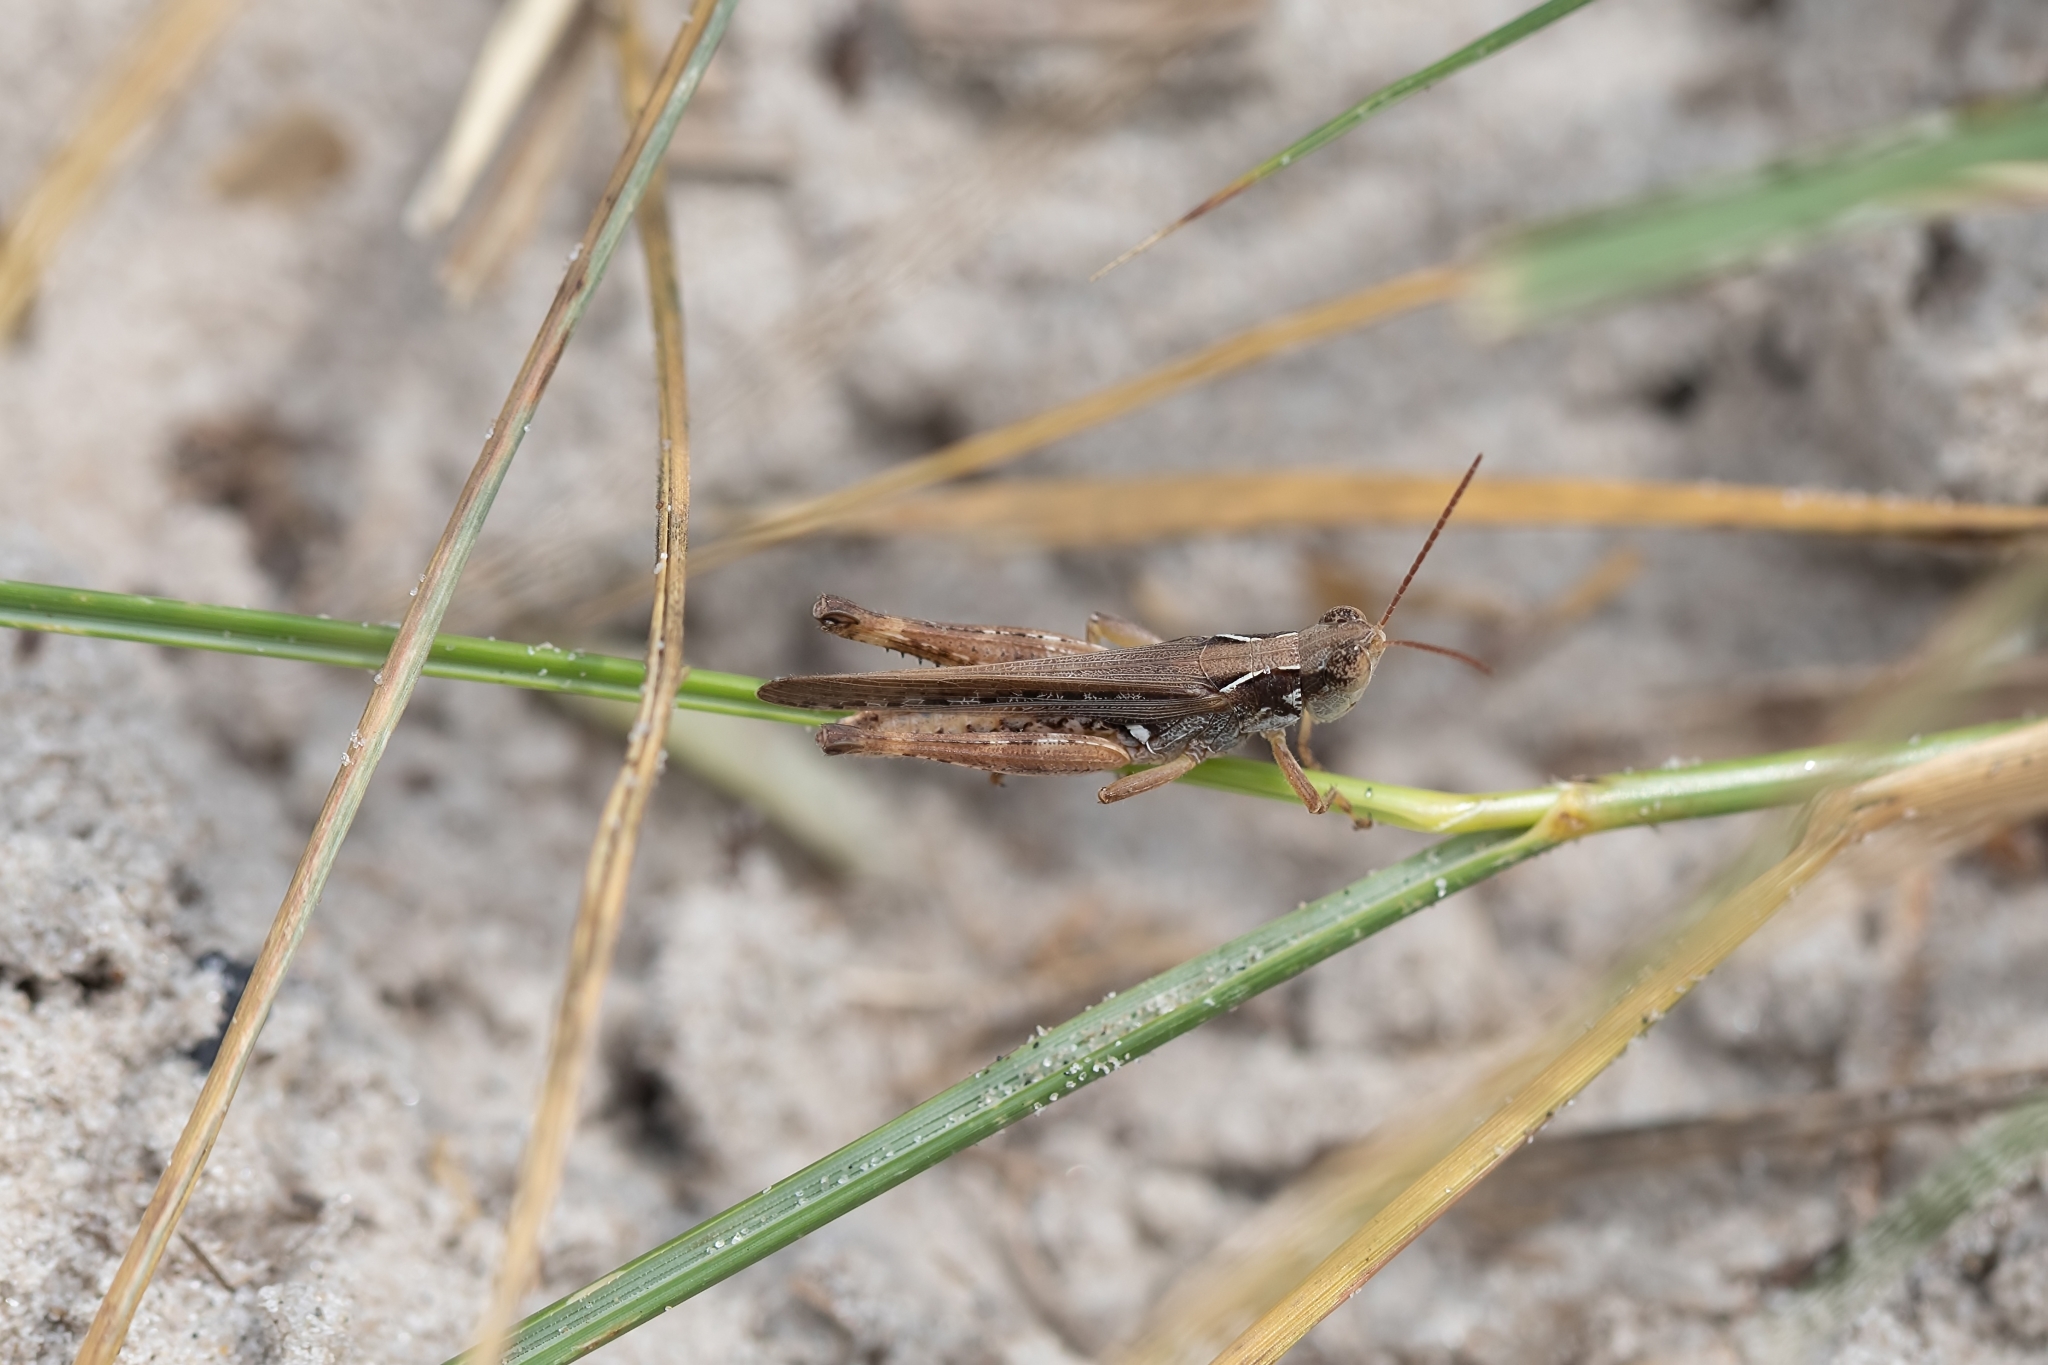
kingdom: Animalia
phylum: Arthropoda
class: Insecta
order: Orthoptera
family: Acrididae
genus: Orphulella
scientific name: Orphulella pelidna
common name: Spotted-wing grasshopper
